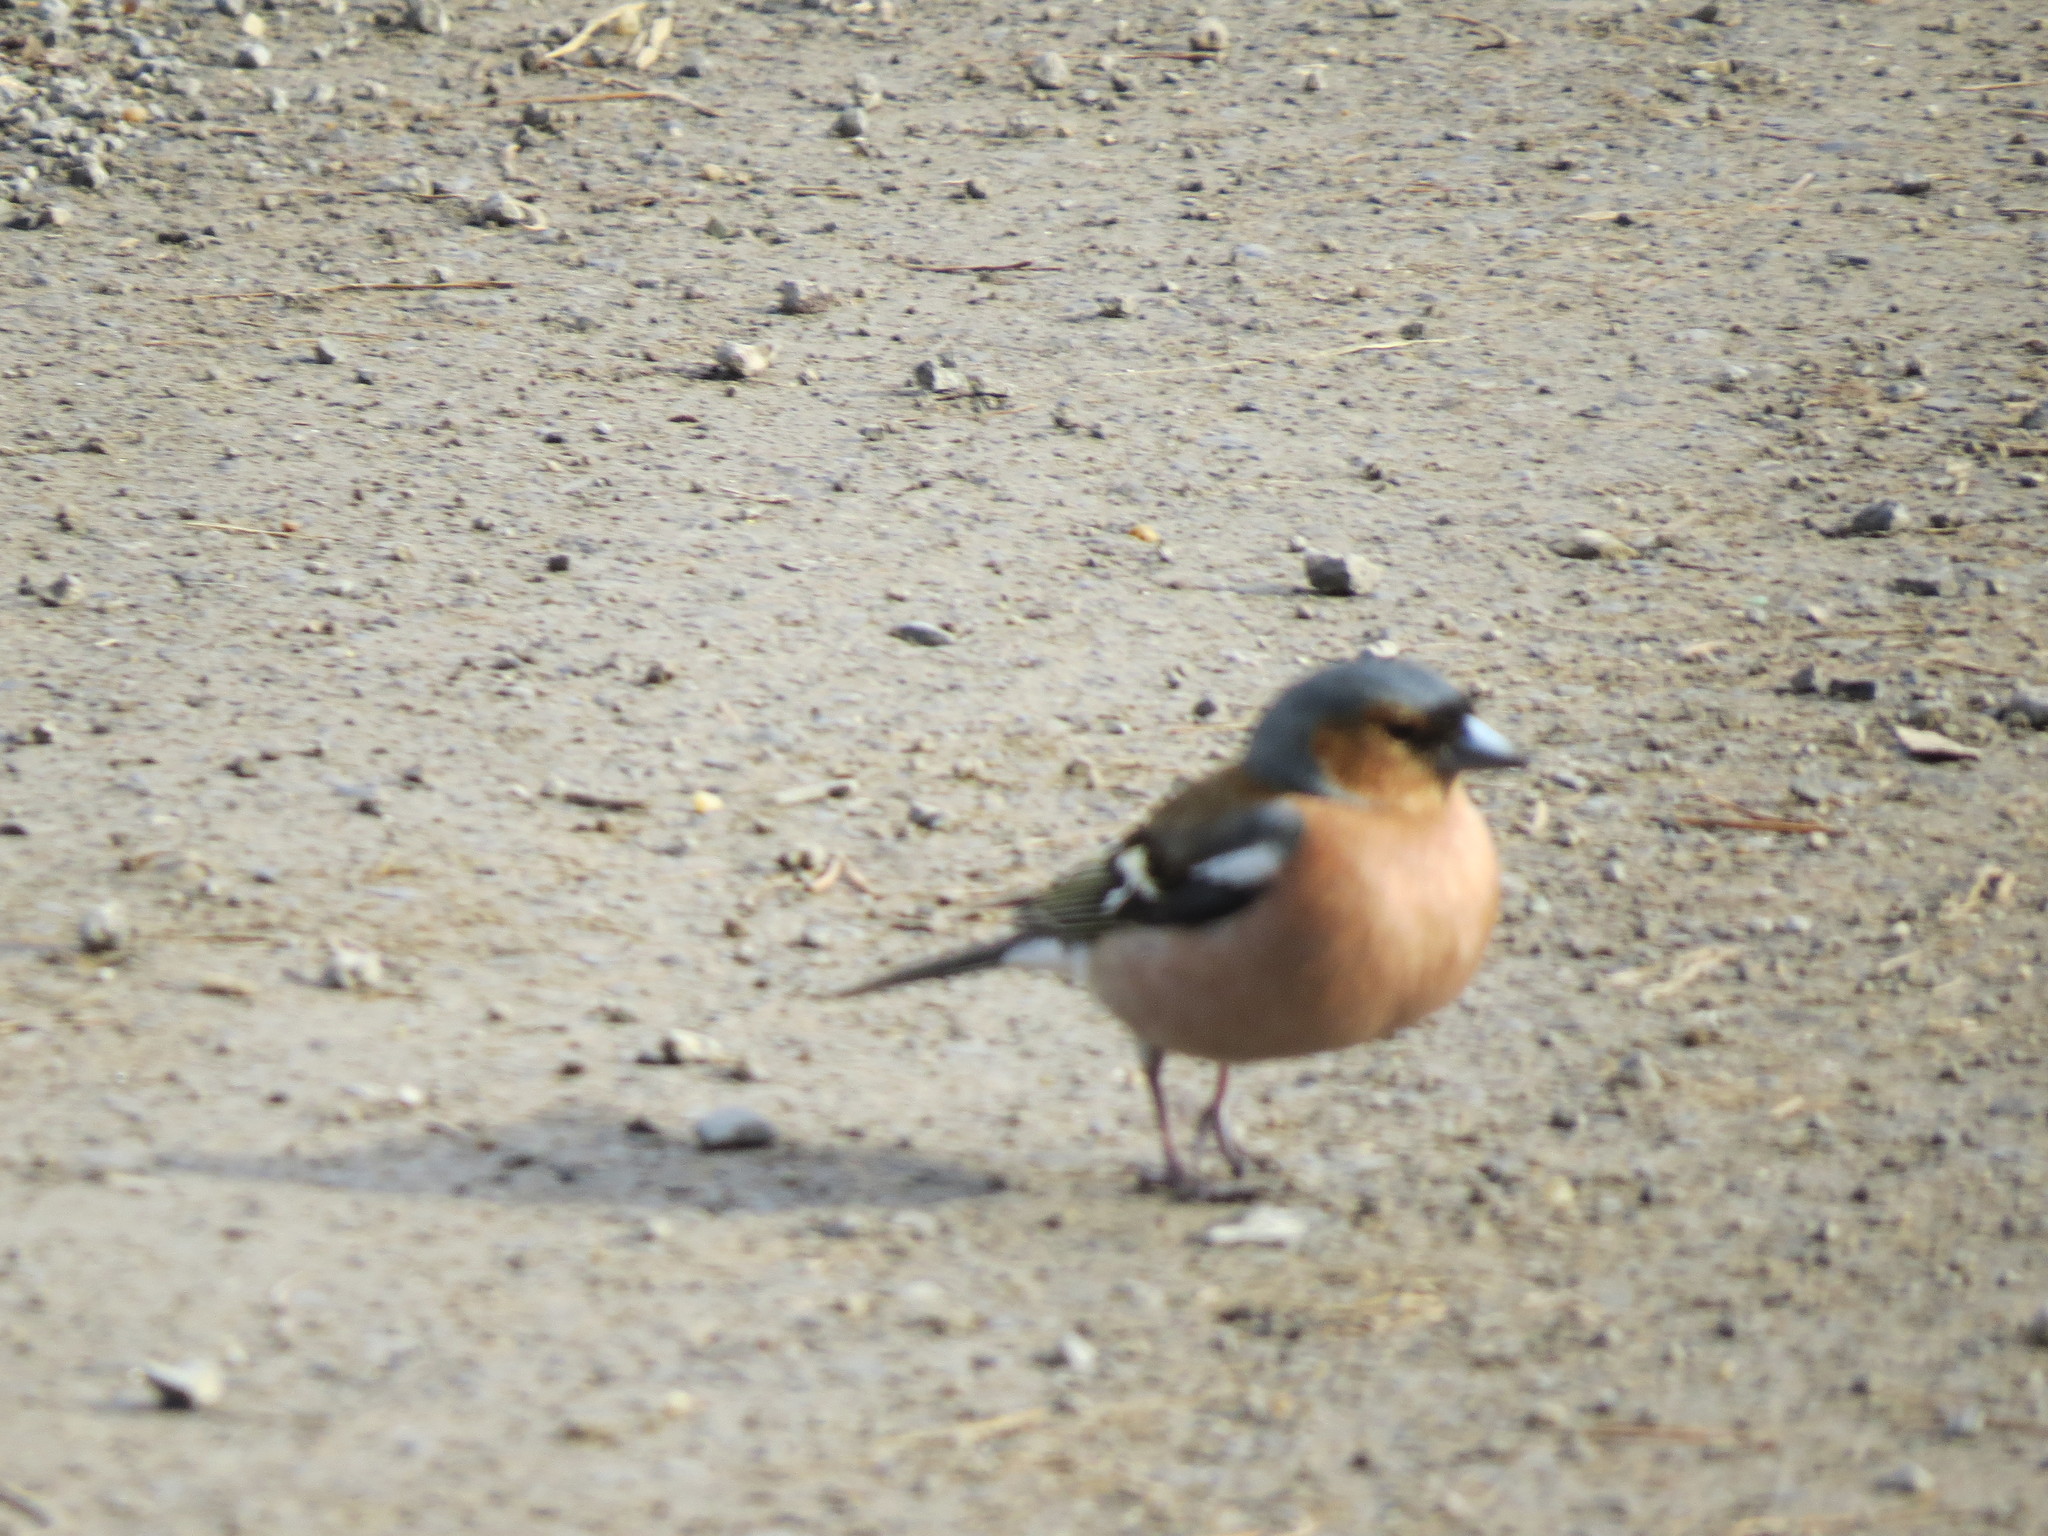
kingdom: Animalia
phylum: Chordata
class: Aves
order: Passeriformes
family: Fringillidae
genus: Fringilla
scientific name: Fringilla coelebs
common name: Common chaffinch
